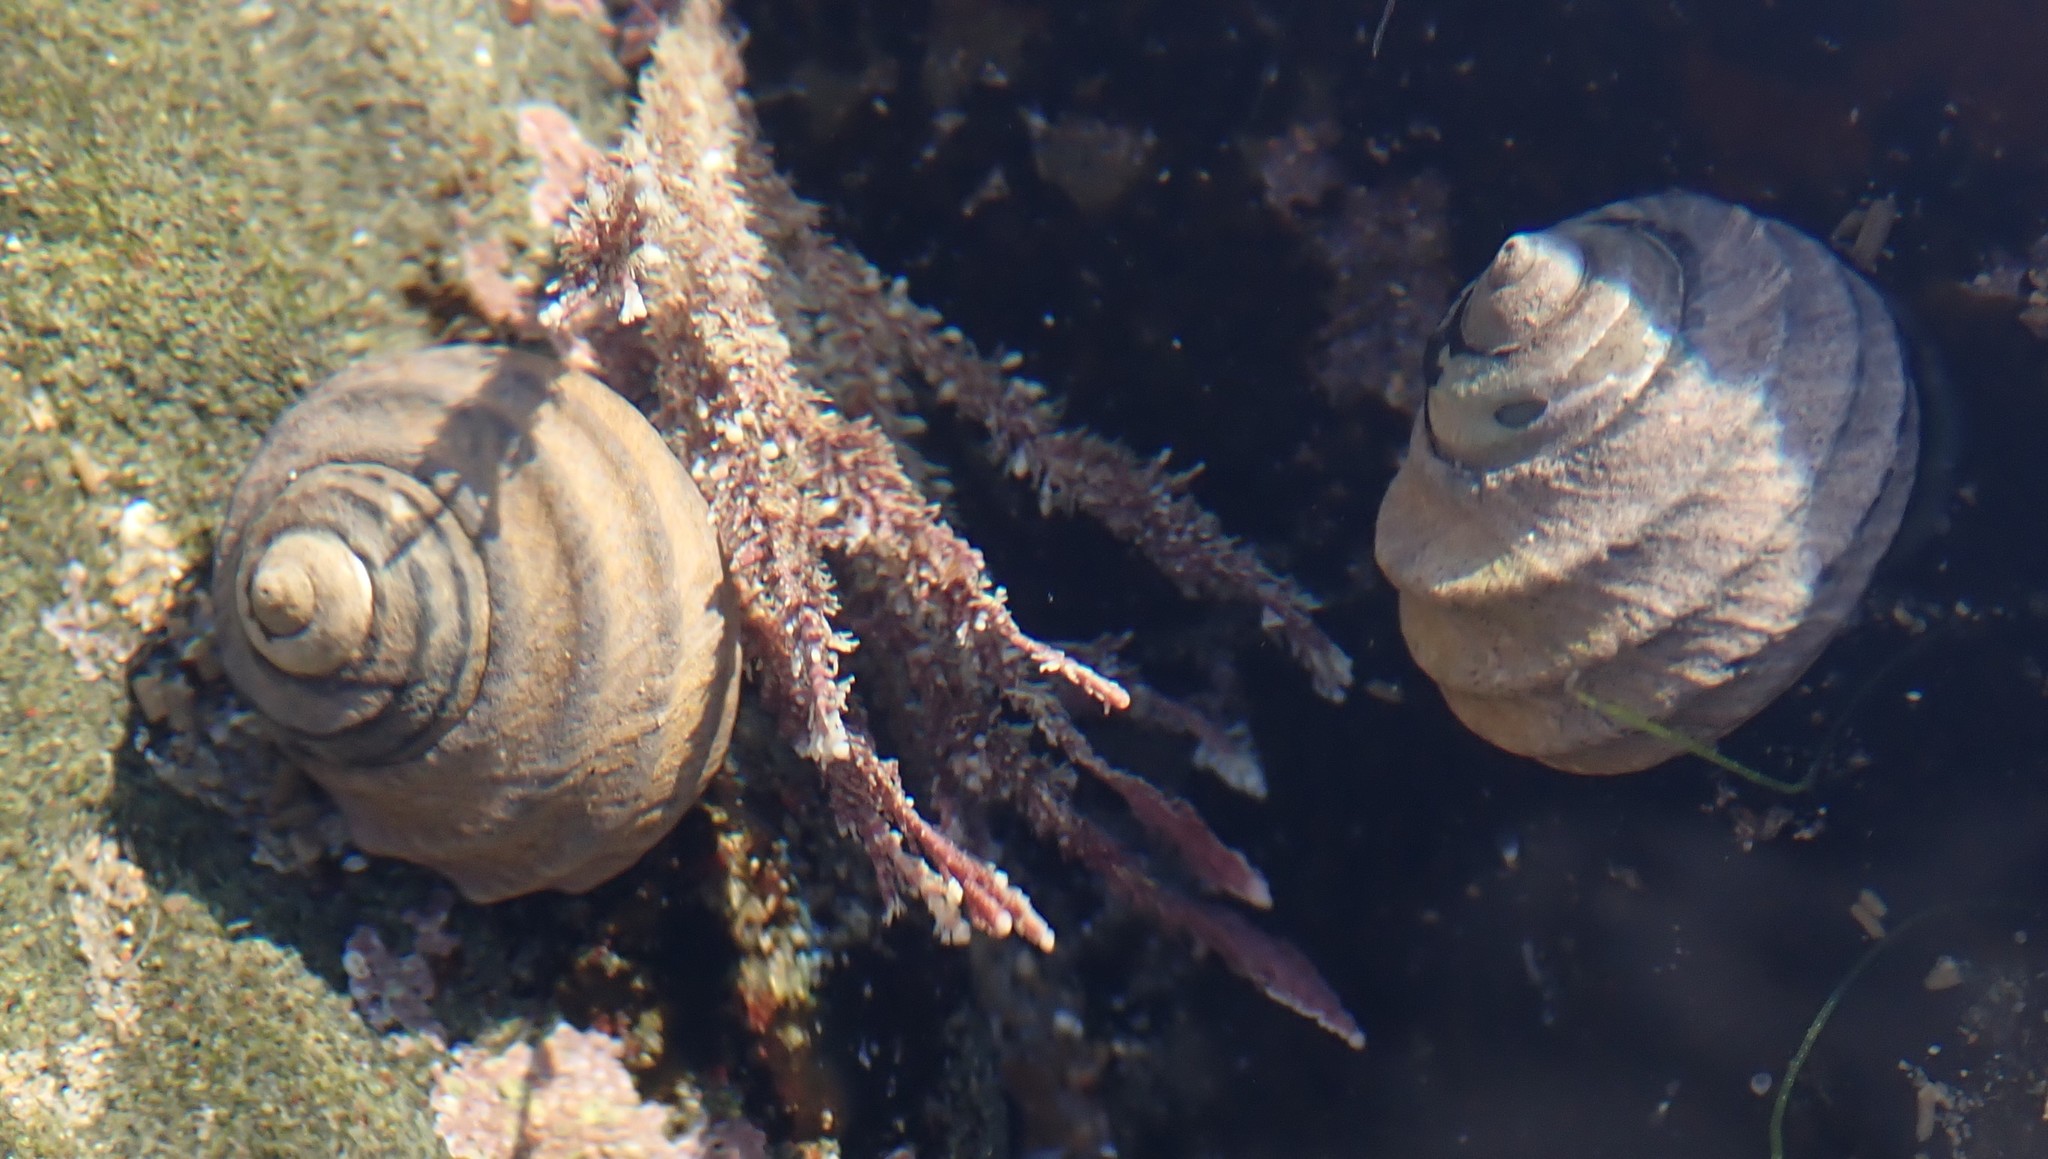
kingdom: Animalia
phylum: Mollusca
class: Gastropoda
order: Trochida
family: Trochidae
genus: Austrocochlea
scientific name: Austrocochlea constricta
